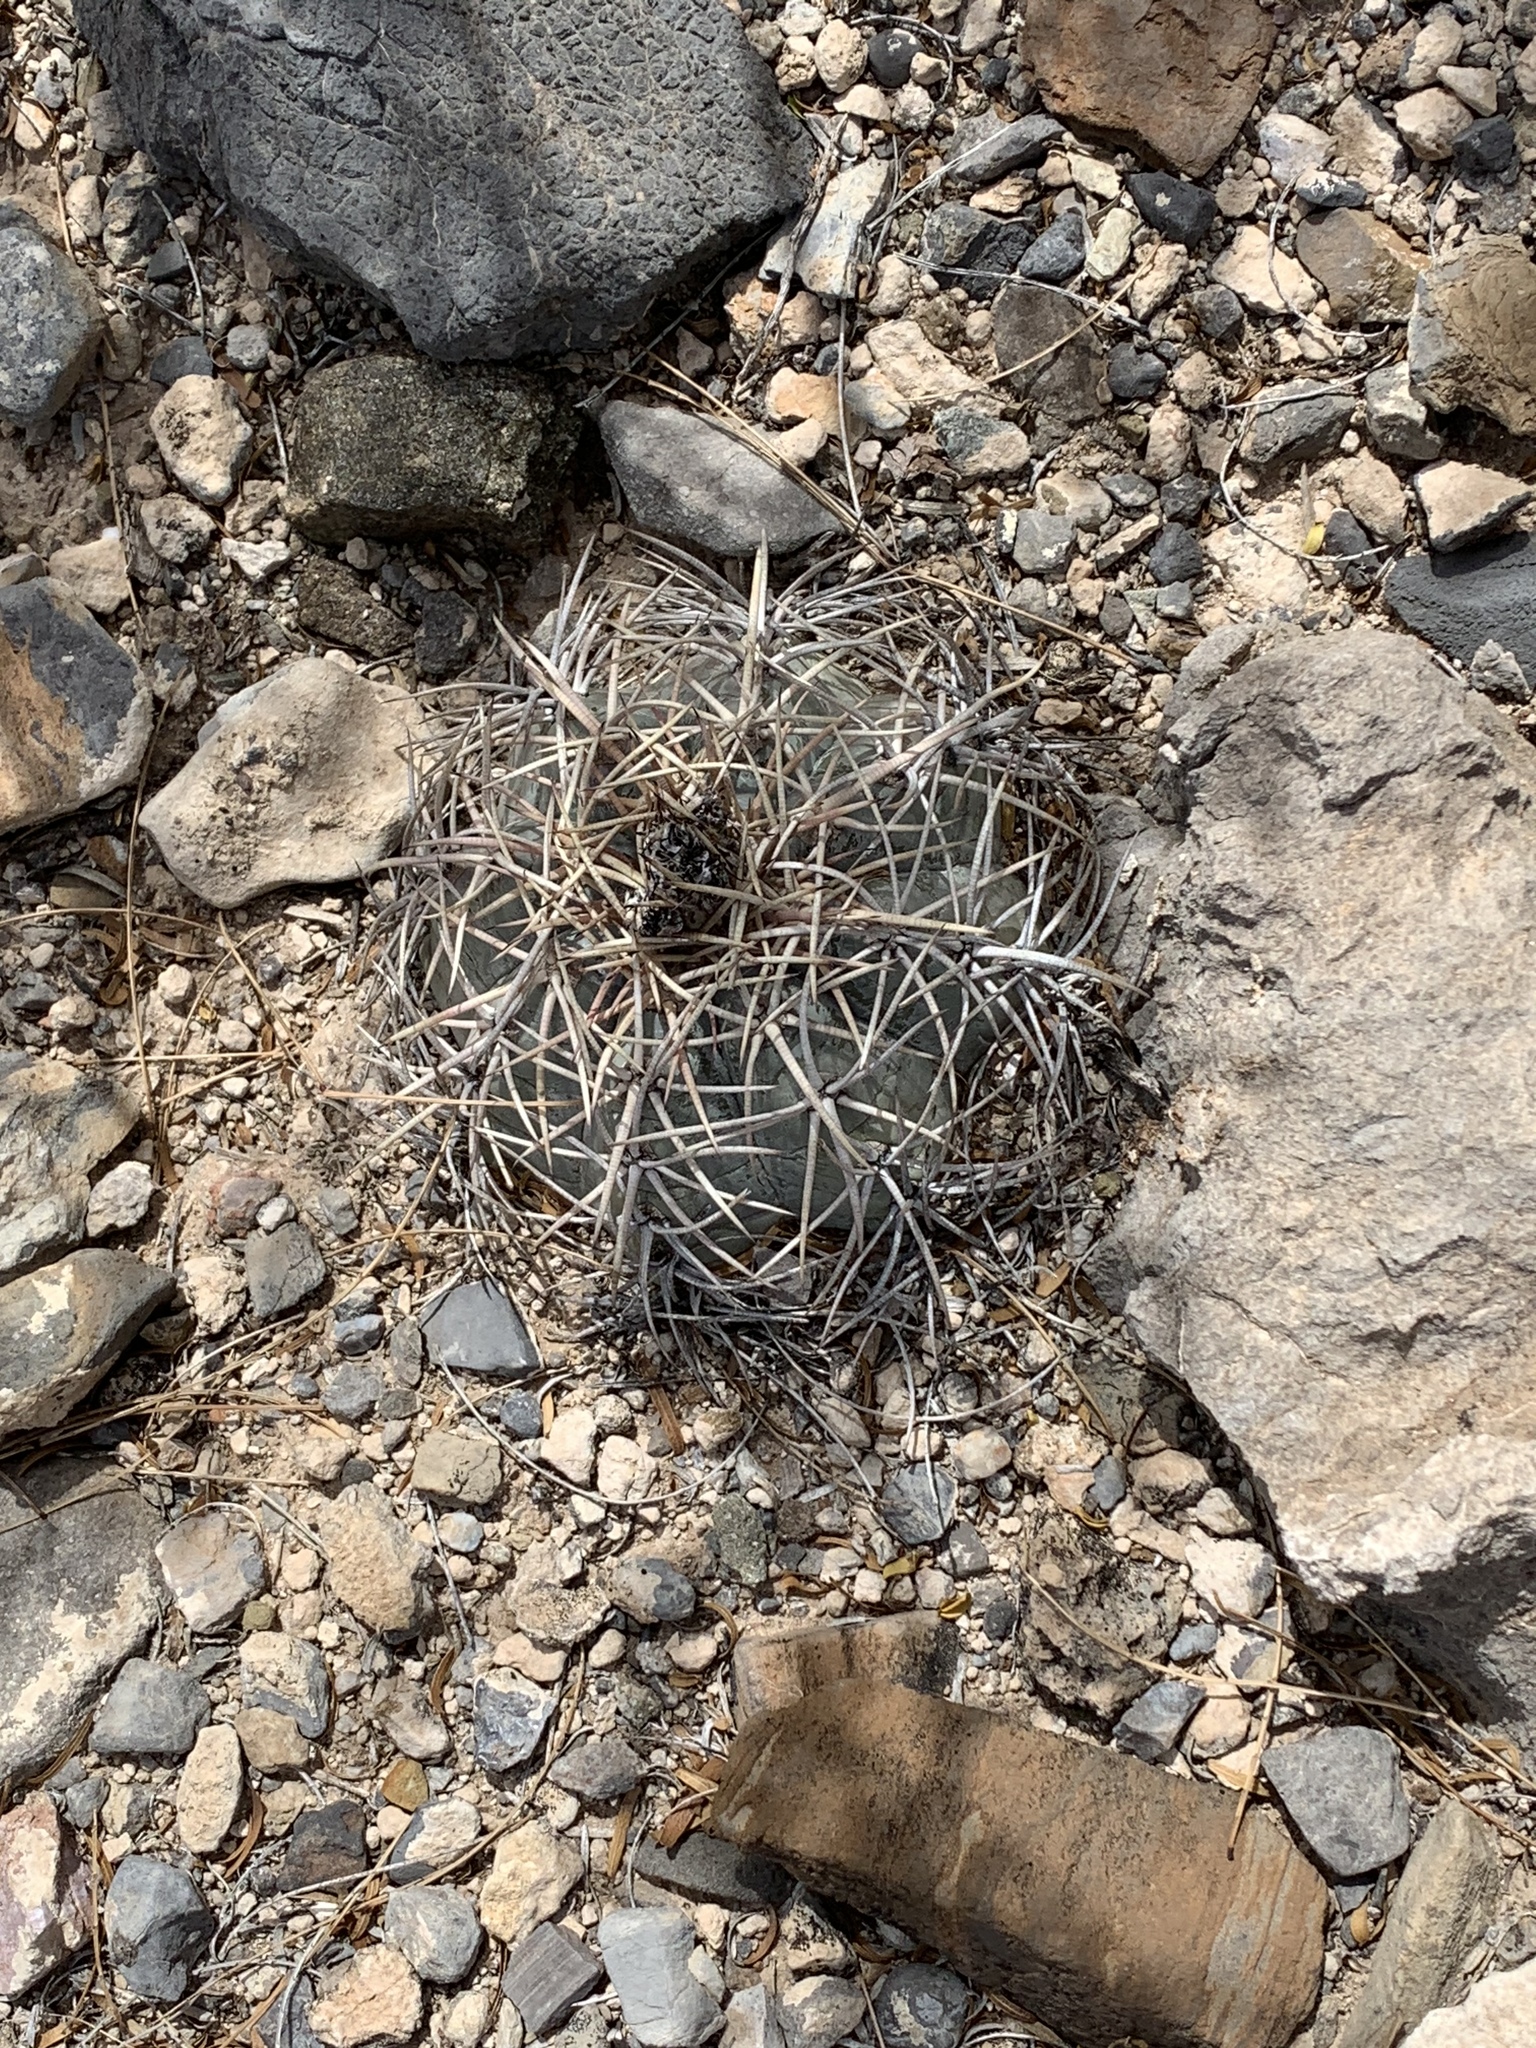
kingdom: Plantae
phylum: Tracheophyta
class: Magnoliopsida
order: Caryophyllales
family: Cactaceae
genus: Echinocactus
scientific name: Echinocactus horizonthalonius
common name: Devilshead
